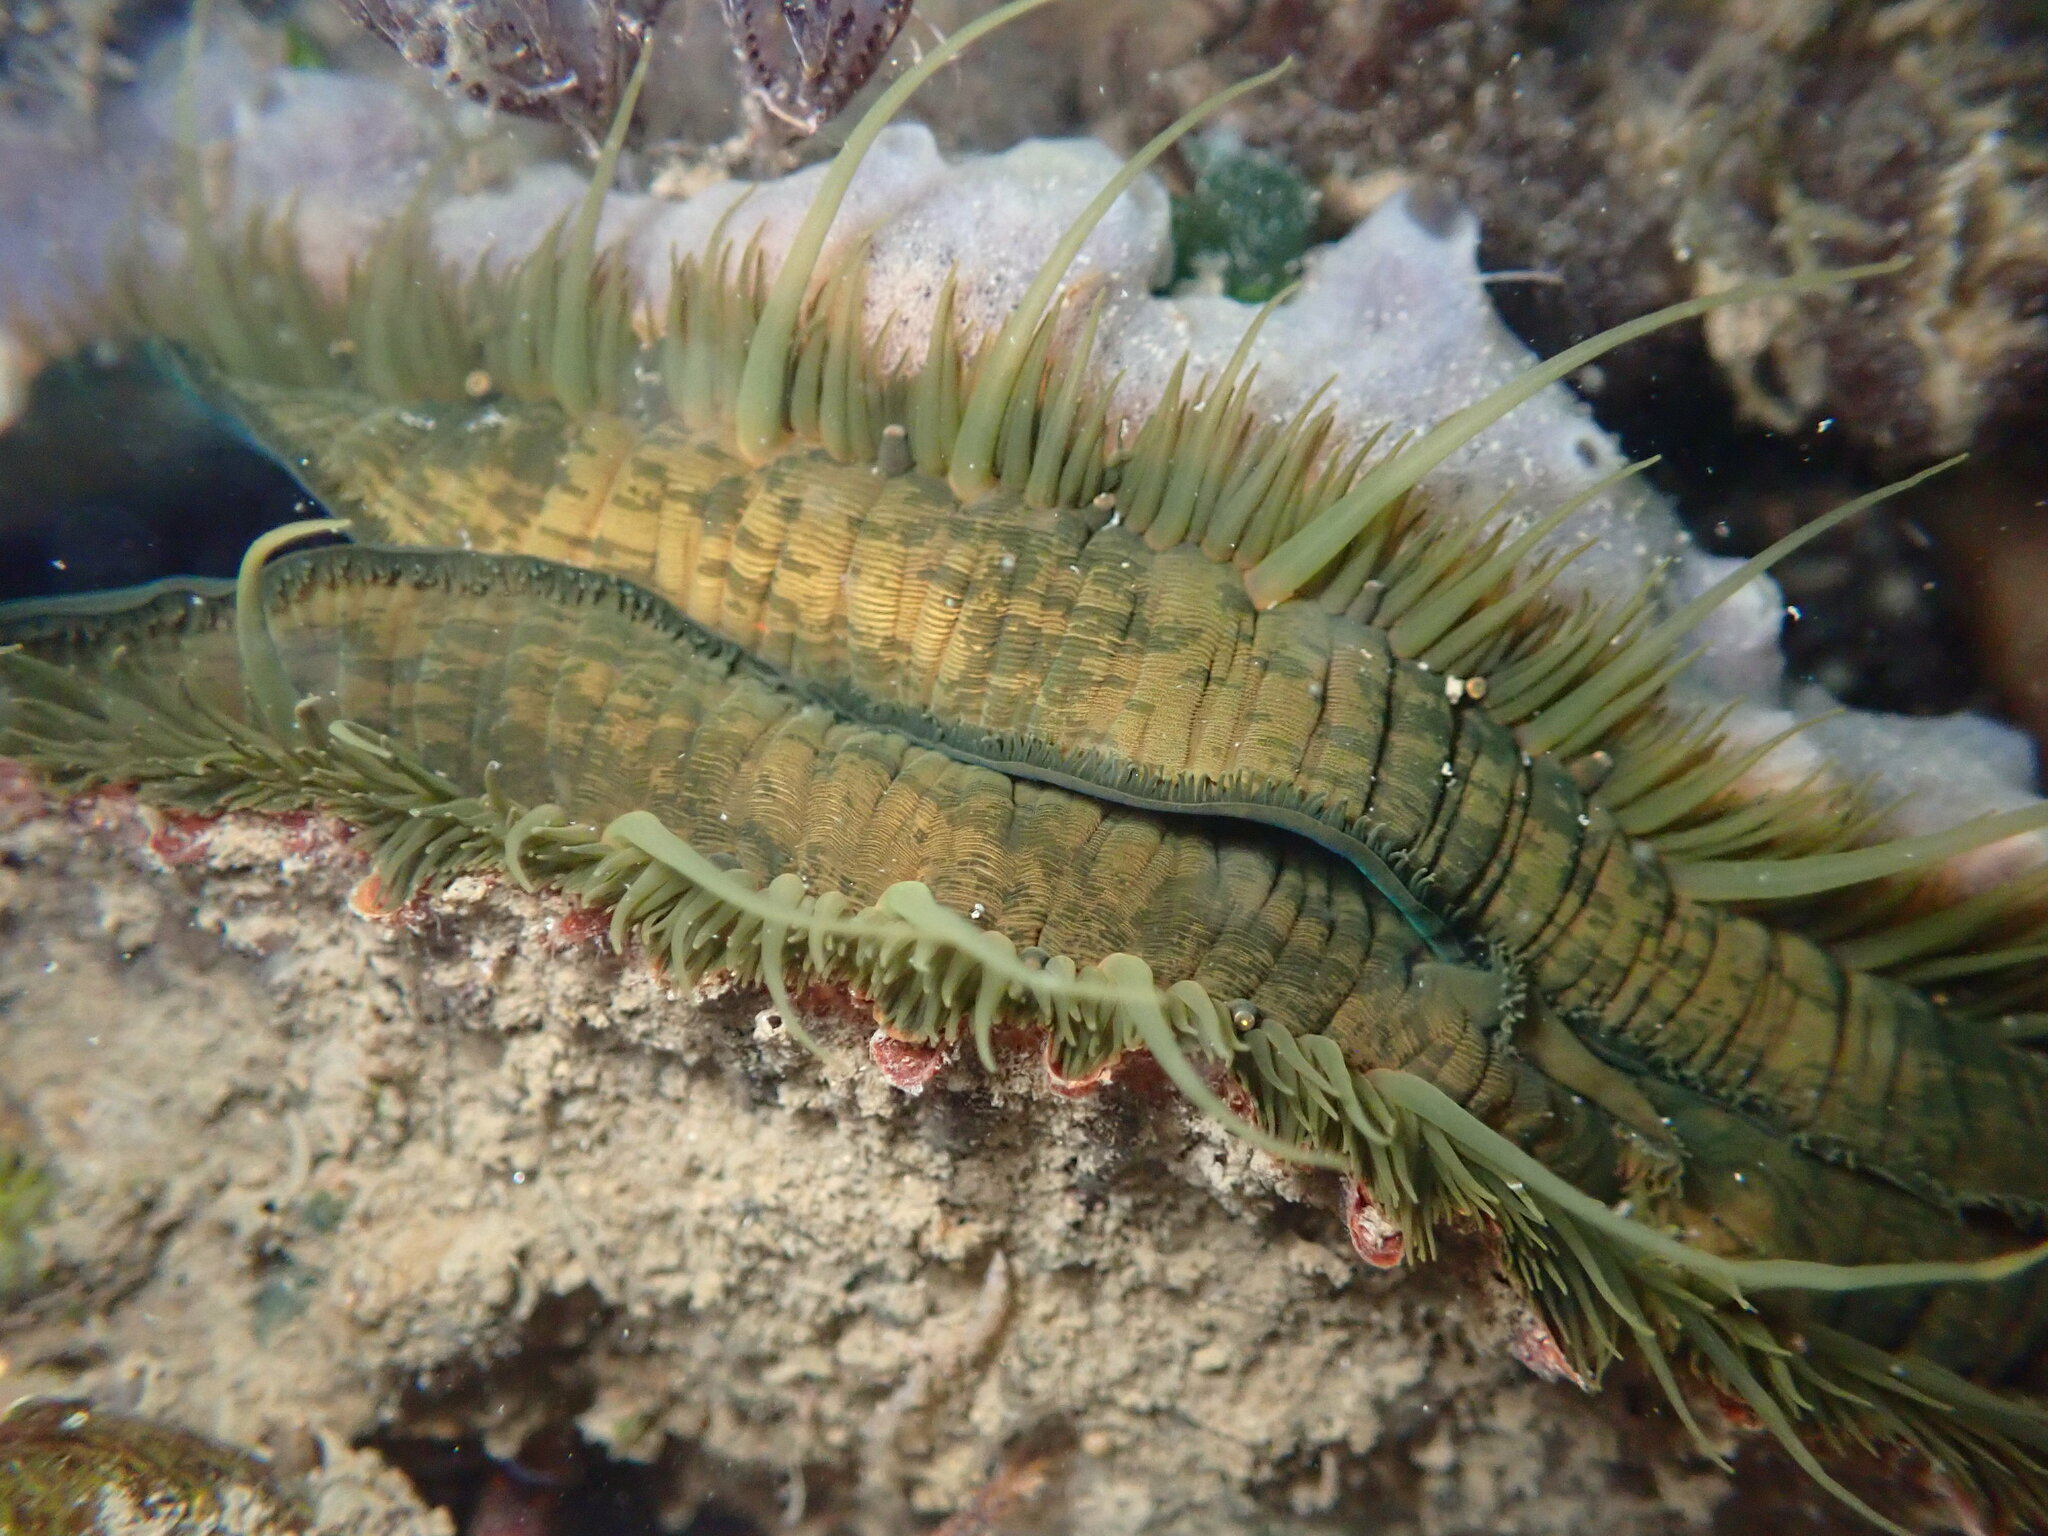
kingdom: Animalia
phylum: Mollusca
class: Bivalvia
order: Pectinida
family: Pectinidae
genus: Crassadoma
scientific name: Crassadoma gigantea
